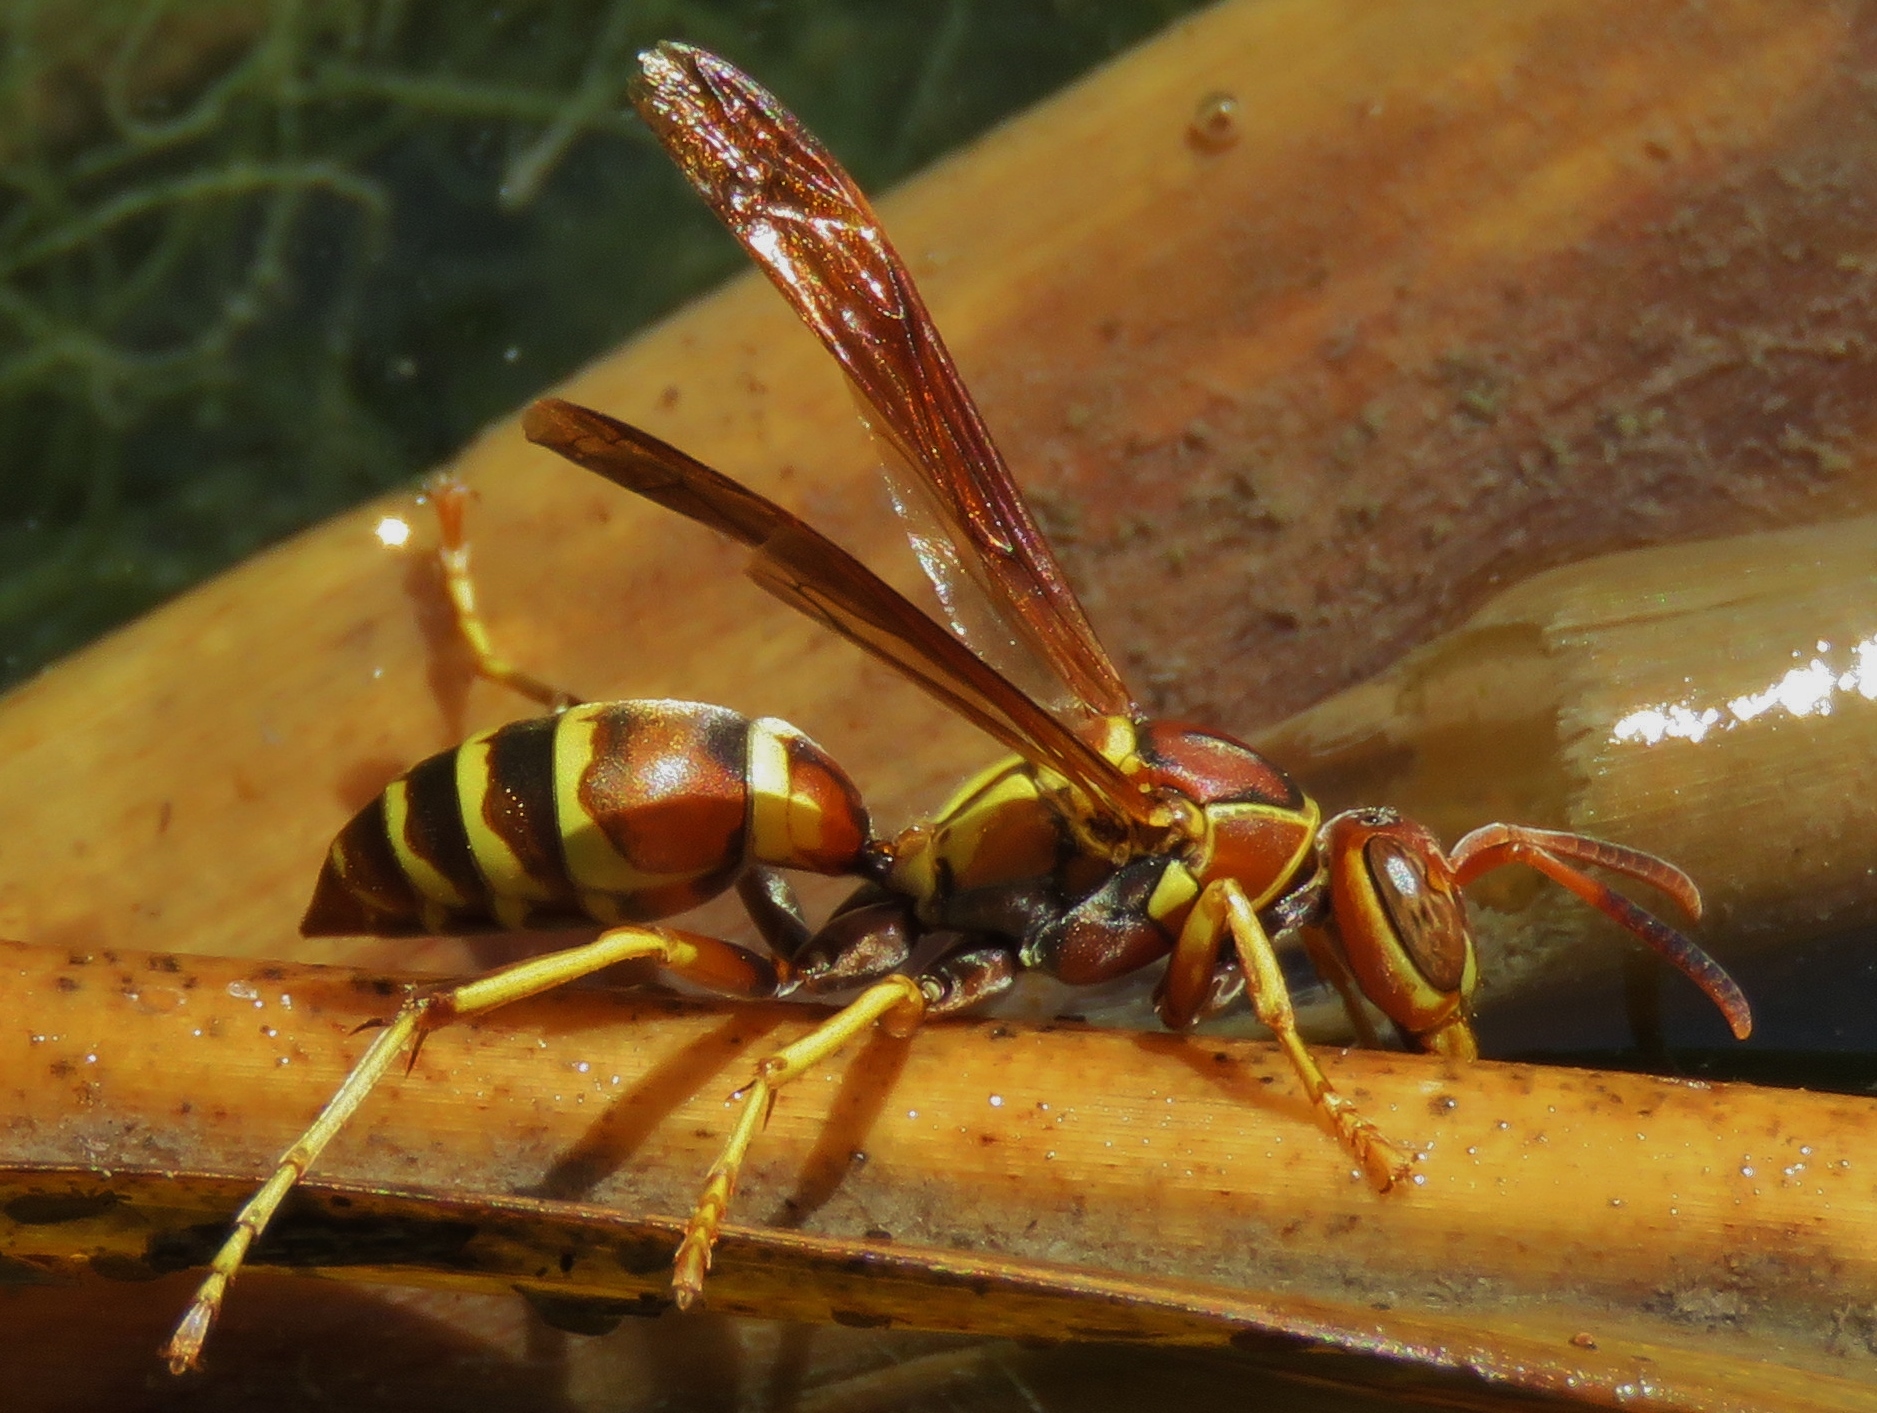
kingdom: Animalia
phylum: Arthropoda
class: Insecta
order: Hymenoptera
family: Eumenidae
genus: Polistes
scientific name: Polistes dorsalis
